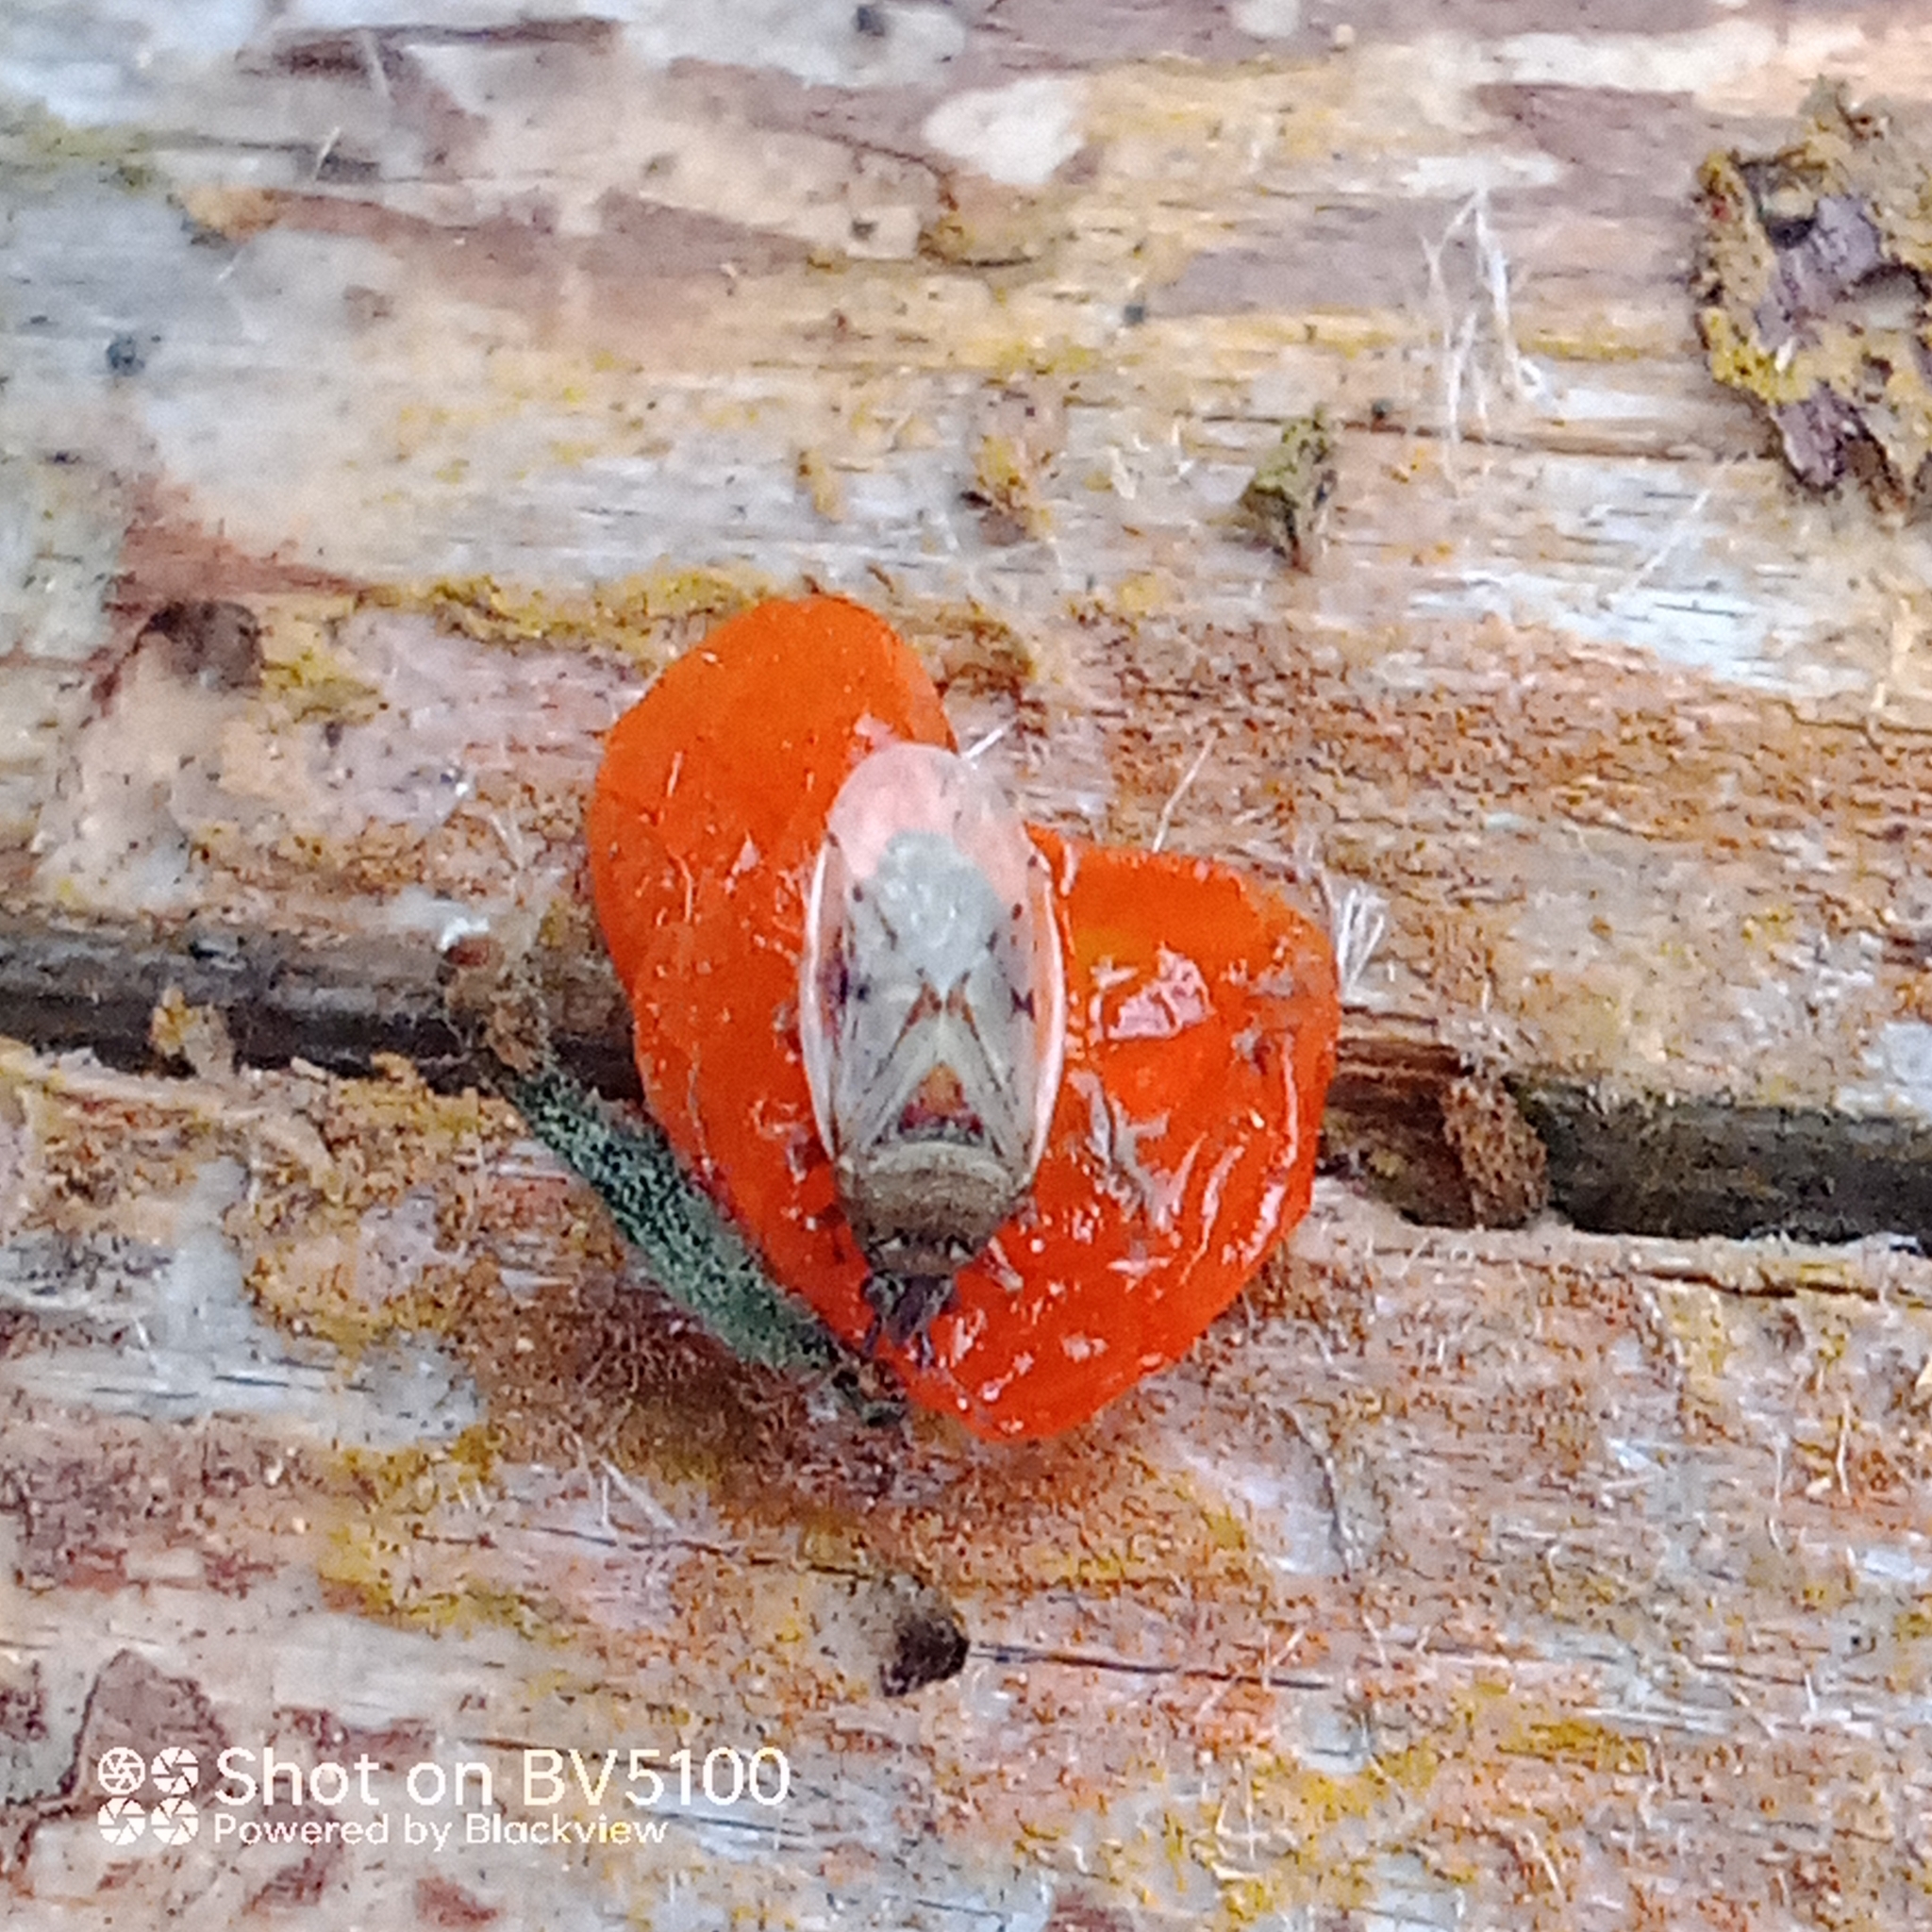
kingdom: Animalia
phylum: Arthropoda
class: Insecta
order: Hemiptera
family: Lygaeidae
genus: Kleidocerys
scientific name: Kleidocerys resedae
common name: Birch catkin bug
